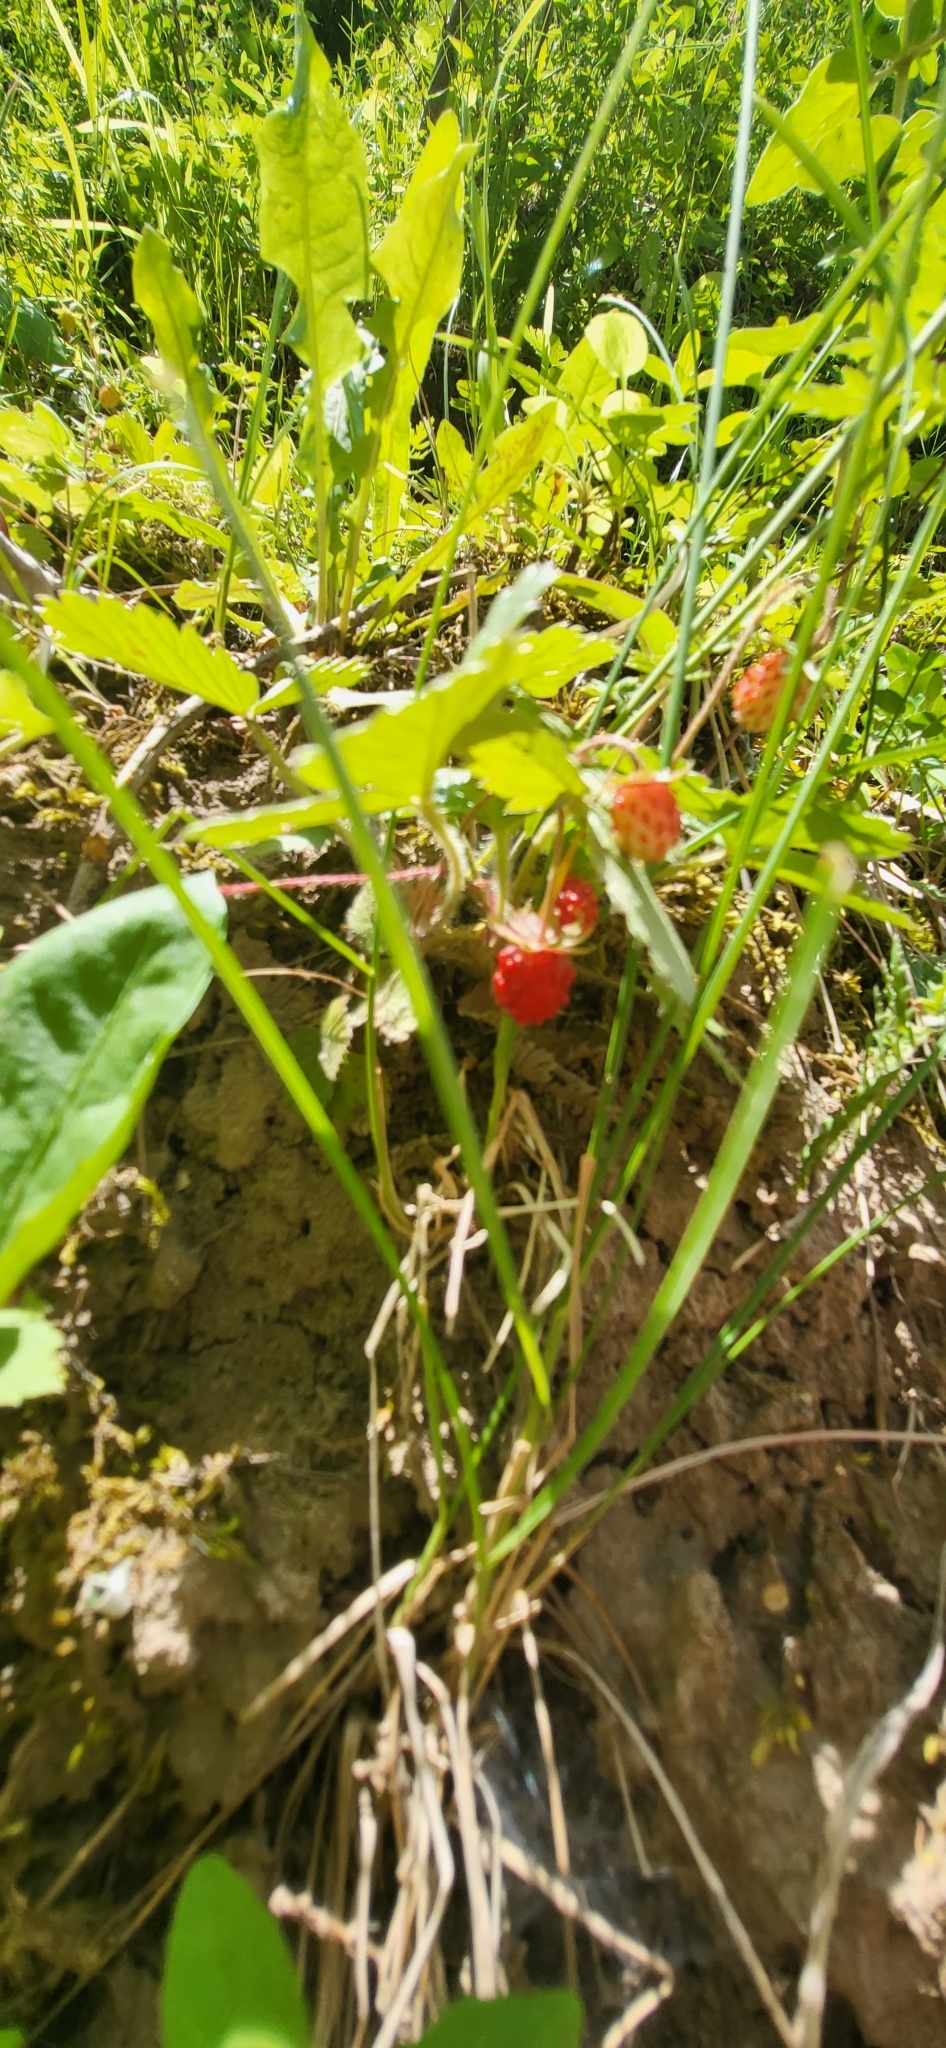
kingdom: Plantae
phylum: Tracheophyta
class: Magnoliopsida
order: Rosales
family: Rosaceae
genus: Fragaria
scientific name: Fragaria vesca
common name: Wild strawberry
